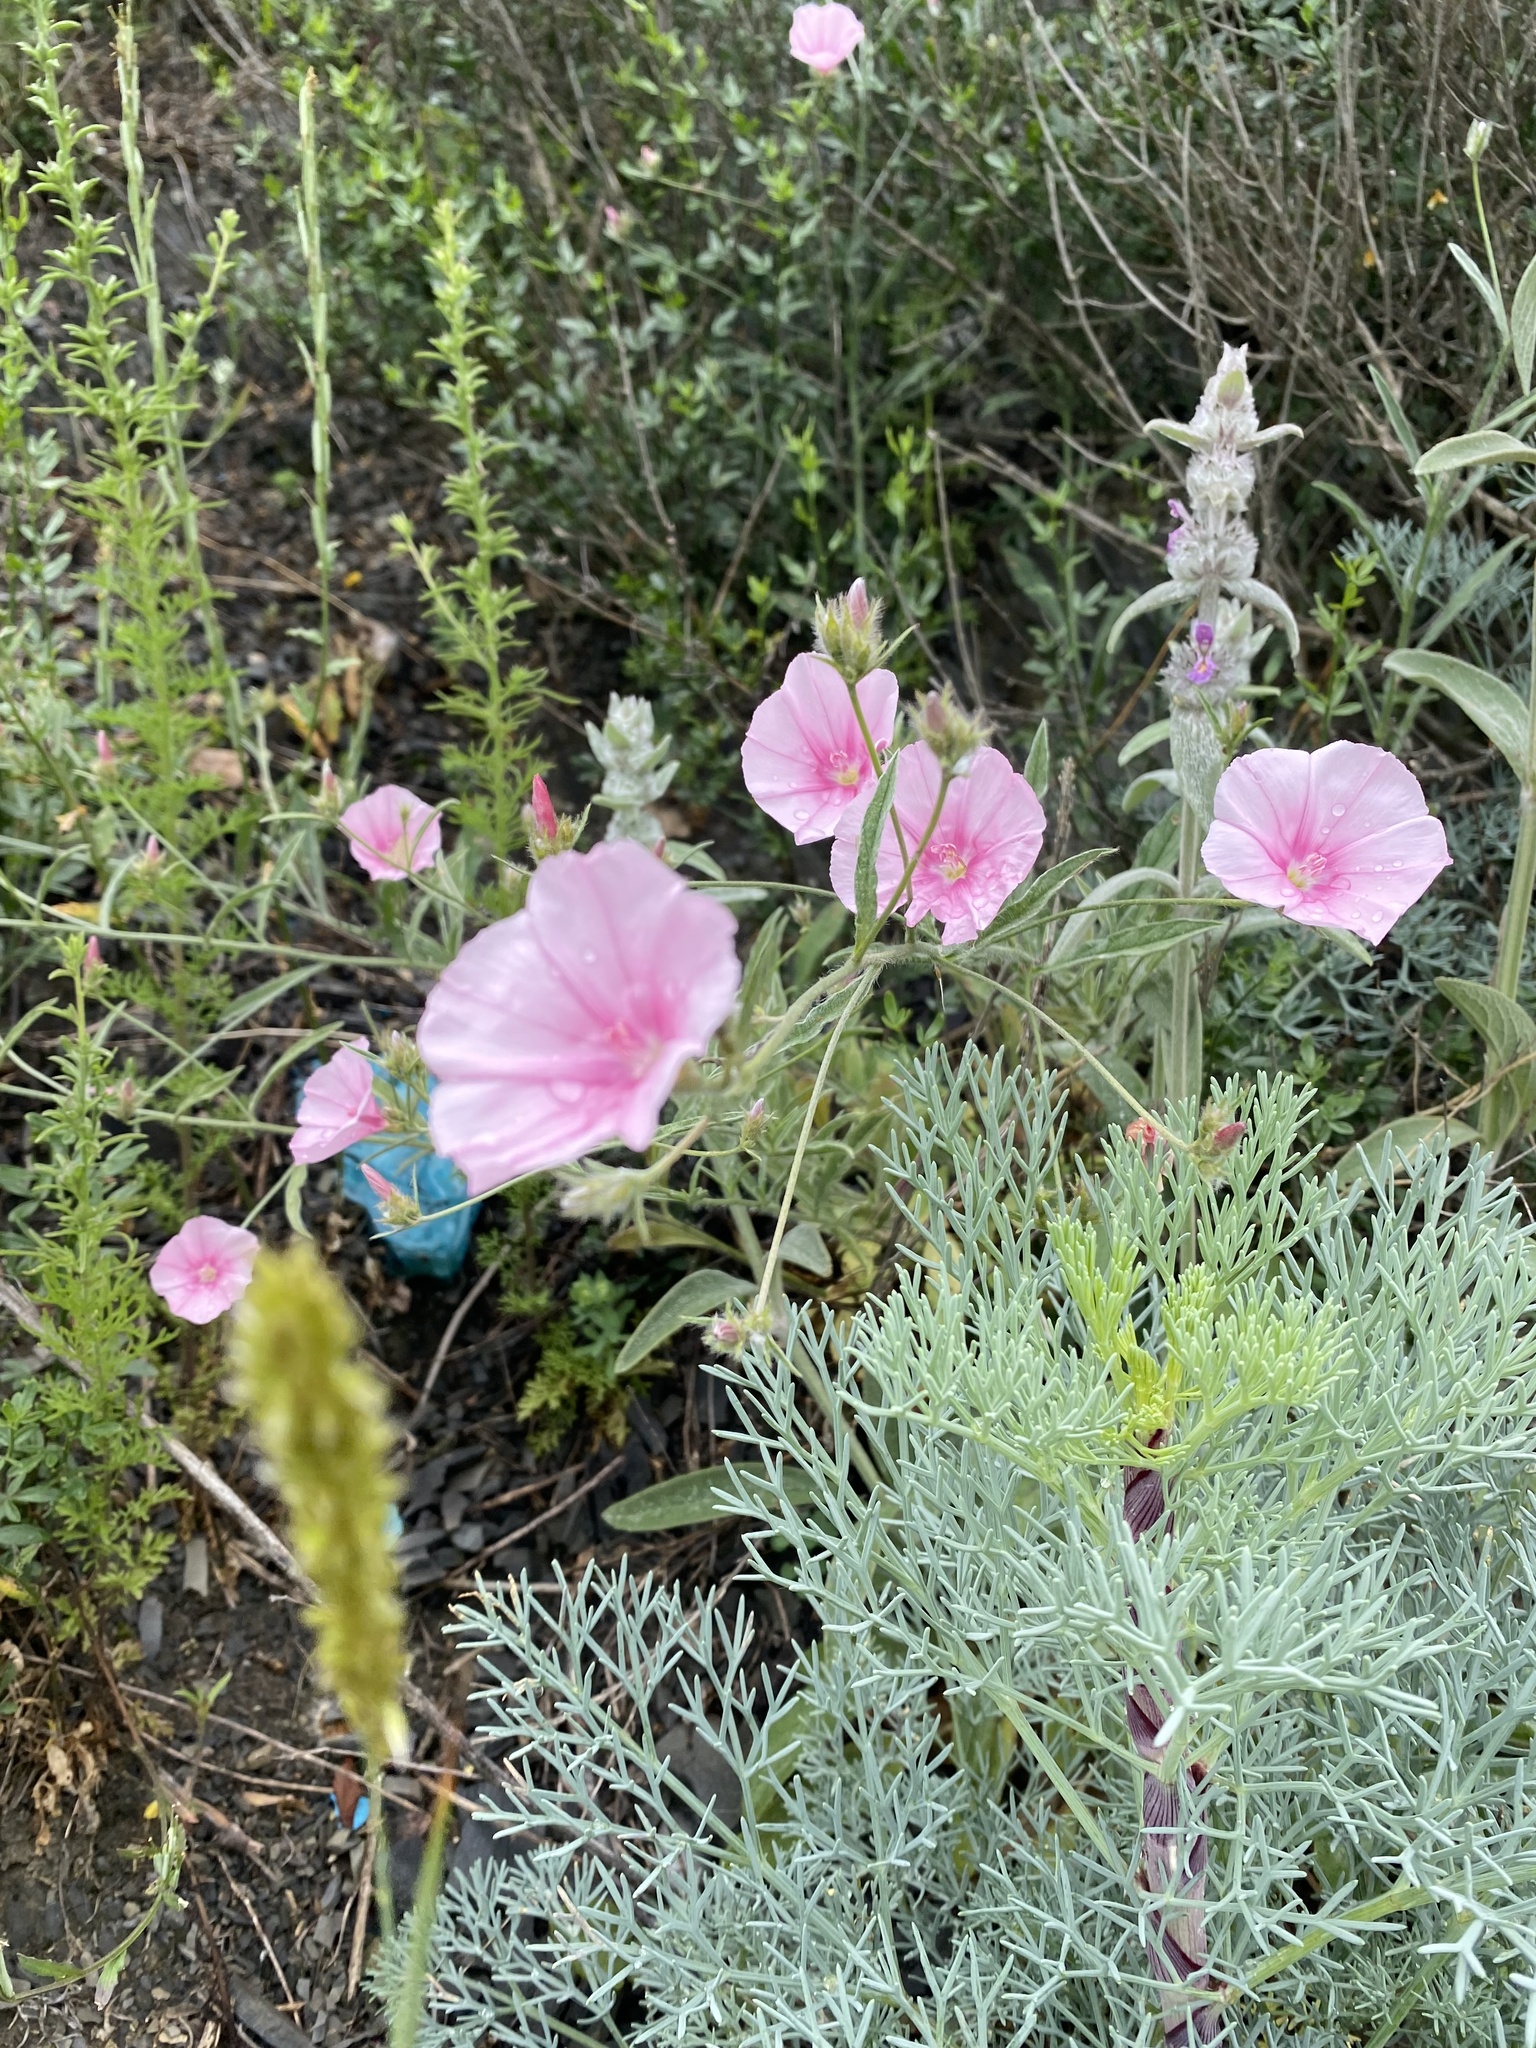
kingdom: Plantae
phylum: Tracheophyta
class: Magnoliopsida
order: Solanales
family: Convolvulaceae
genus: Convolvulus
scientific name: Convolvulus cantabrica
